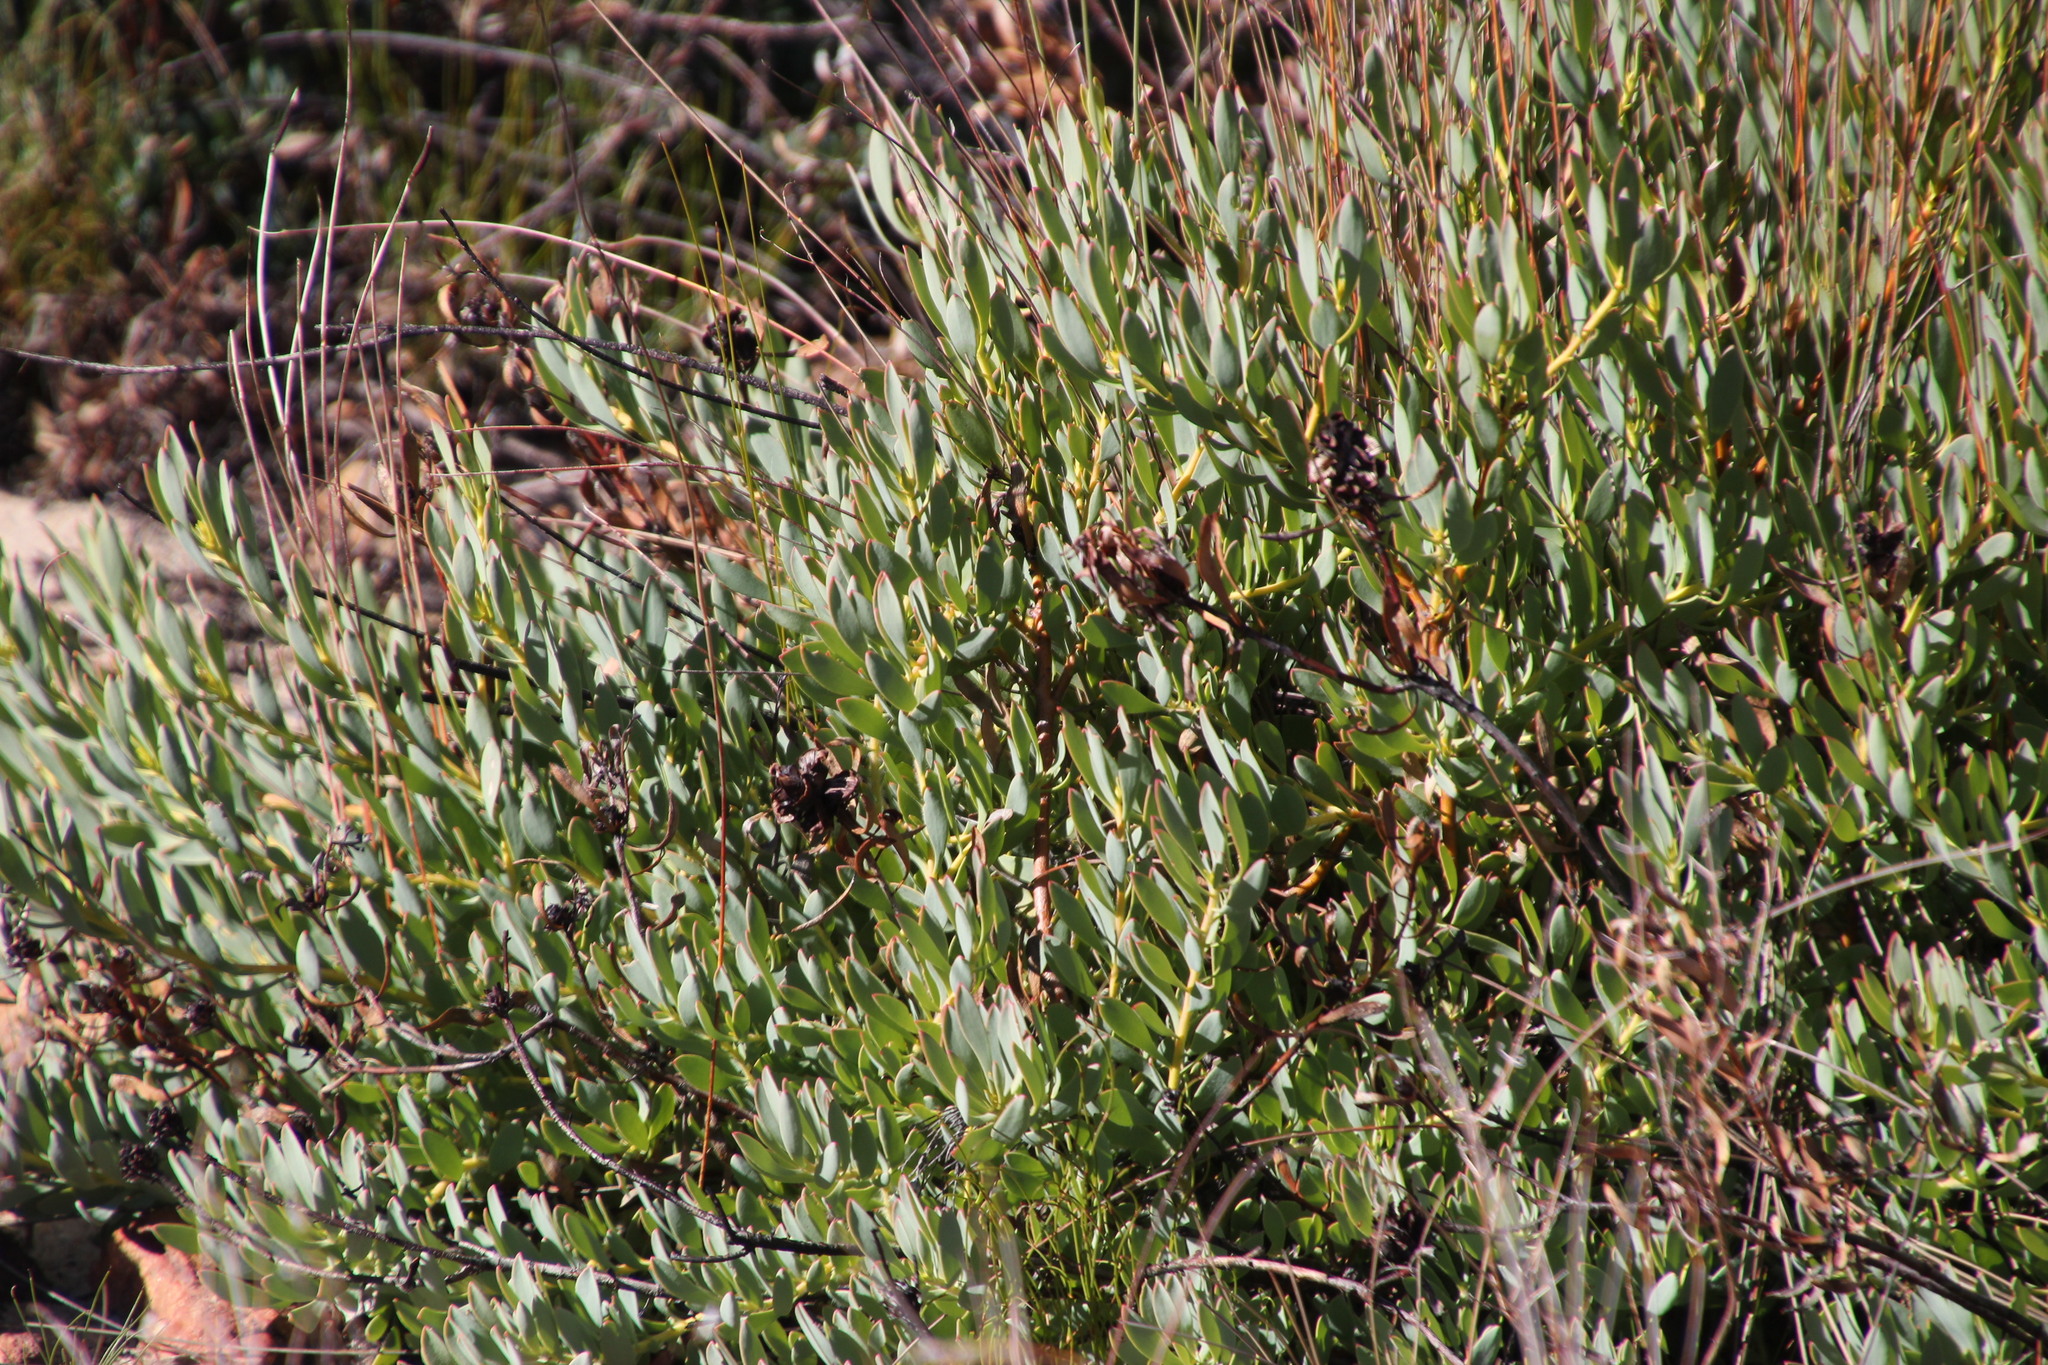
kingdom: Plantae
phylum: Tracheophyta
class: Magnoliopsida
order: Proteales
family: Proteaceae
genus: Leucadendron
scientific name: Leucadendron glaberrimum
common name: Common oily conebush
